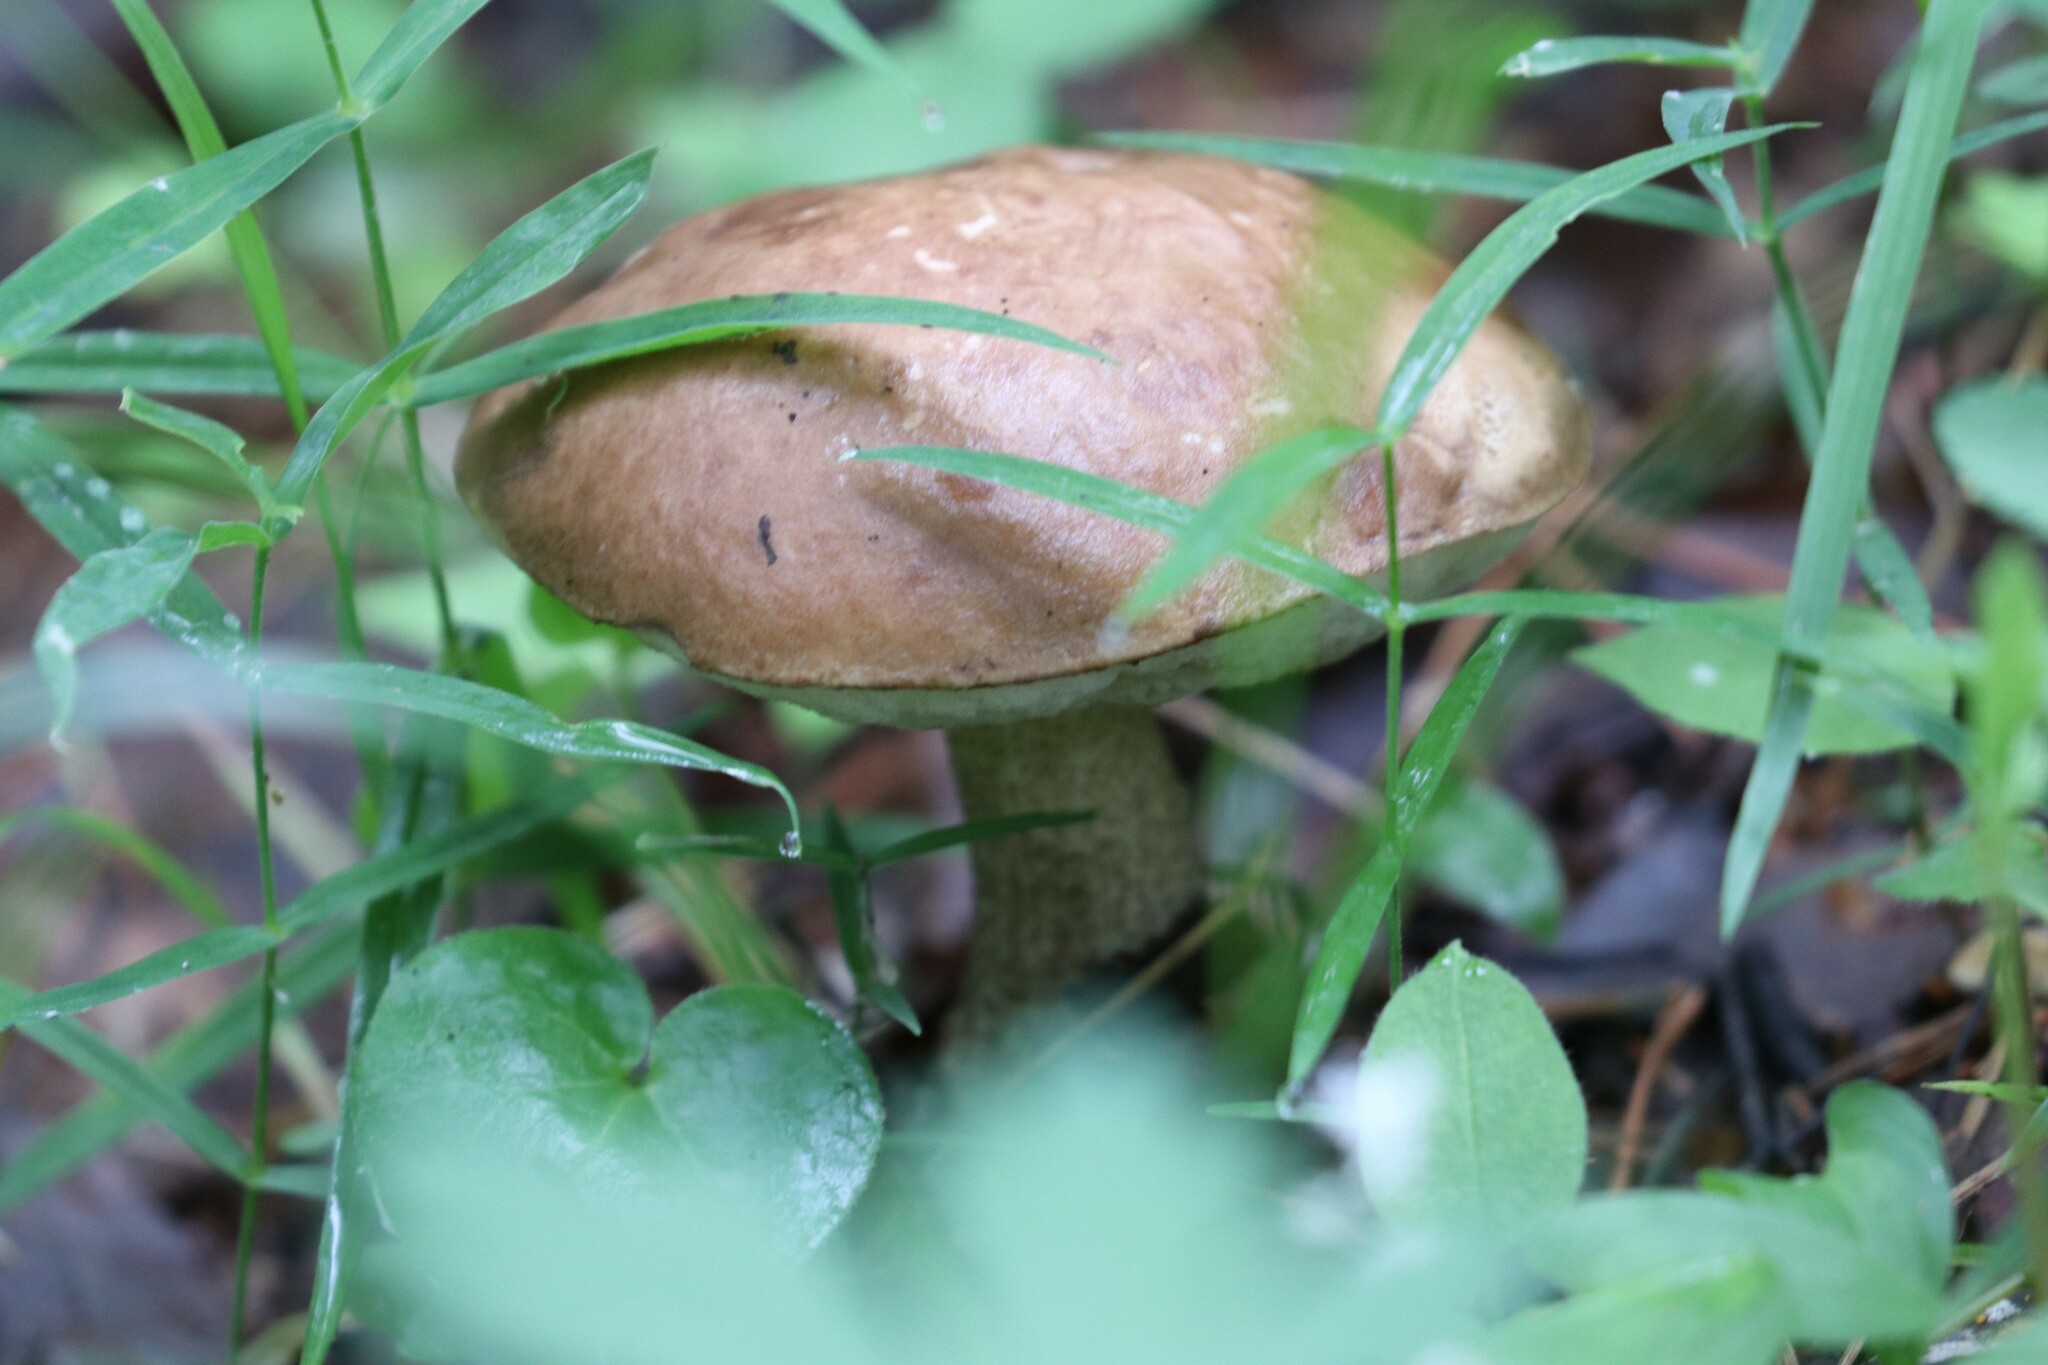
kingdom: Fungi
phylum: Basidiomycota
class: Agaricomycetes
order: Boletales
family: Boletaceae
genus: Leccinum
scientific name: Leccinum scabrum
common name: Blushing bolete
